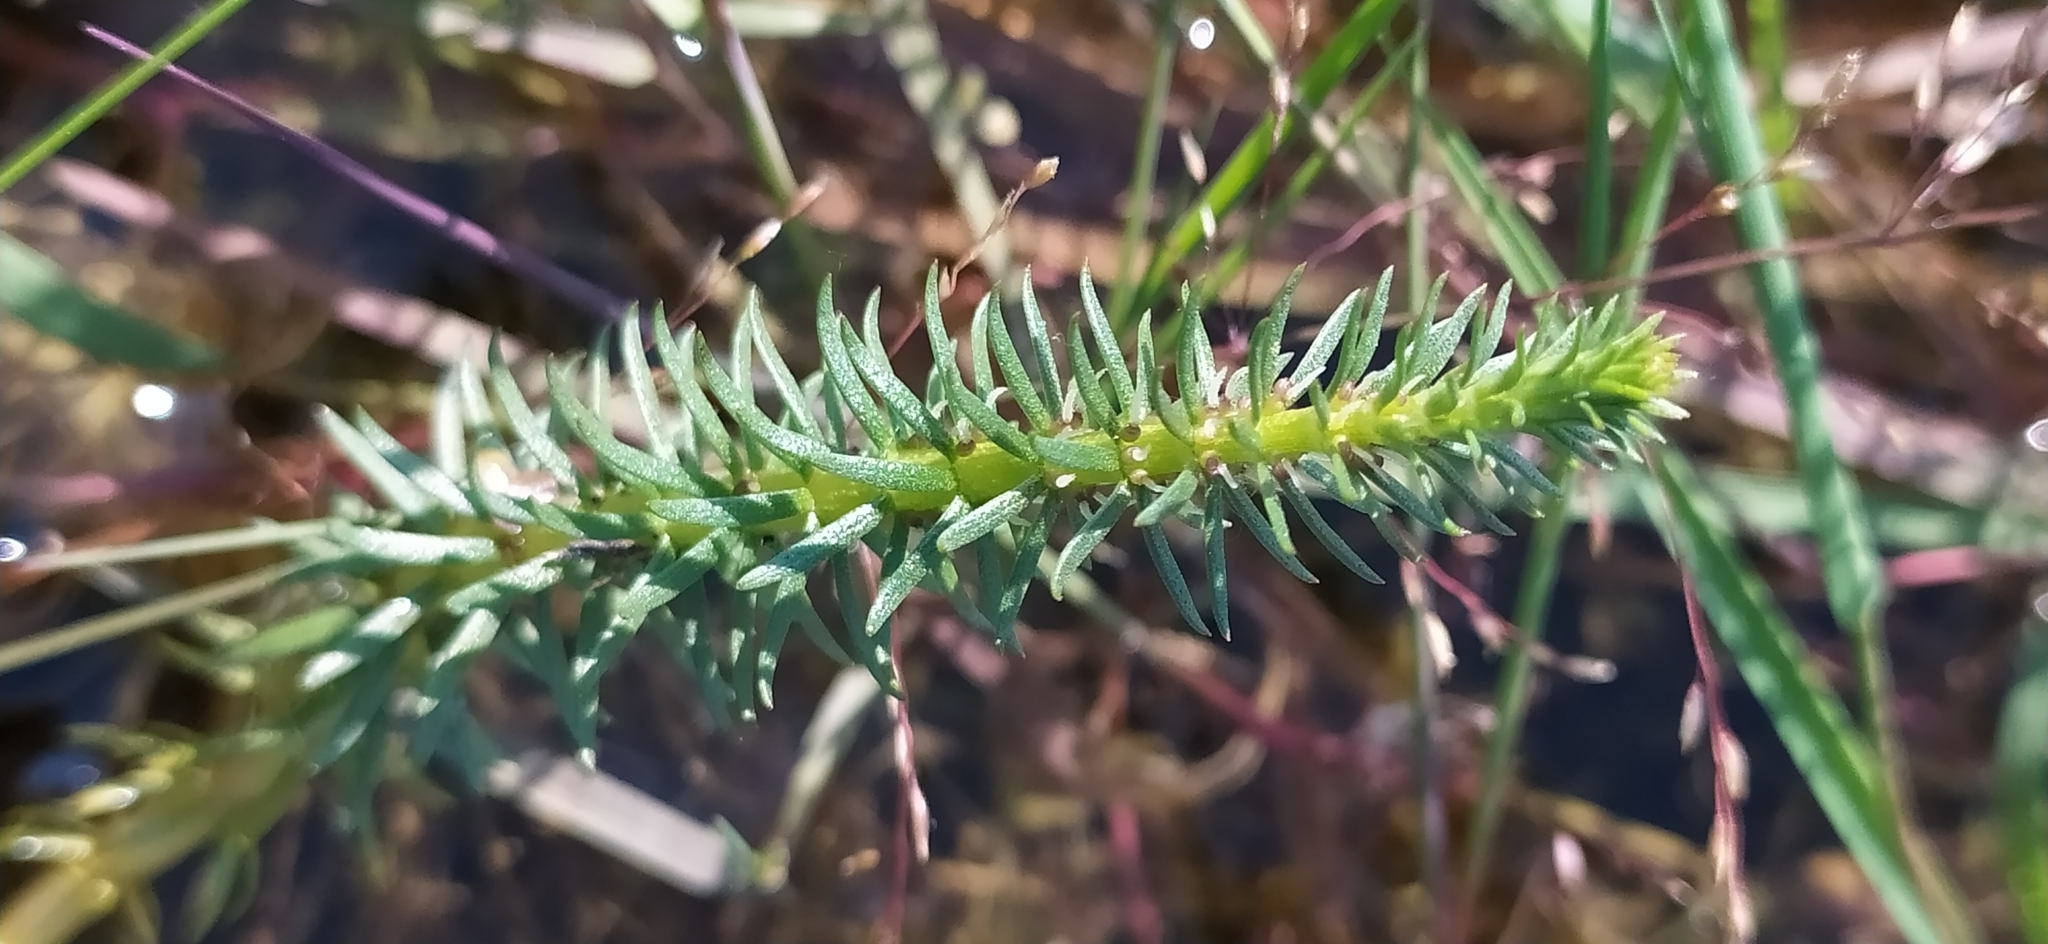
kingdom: Plantae
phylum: Tracheophyta
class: Magnoliopsida
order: Lamiales
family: Plantaginaceae
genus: Hippuris
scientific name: Hippuris vulgaris
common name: Mare's-tail
